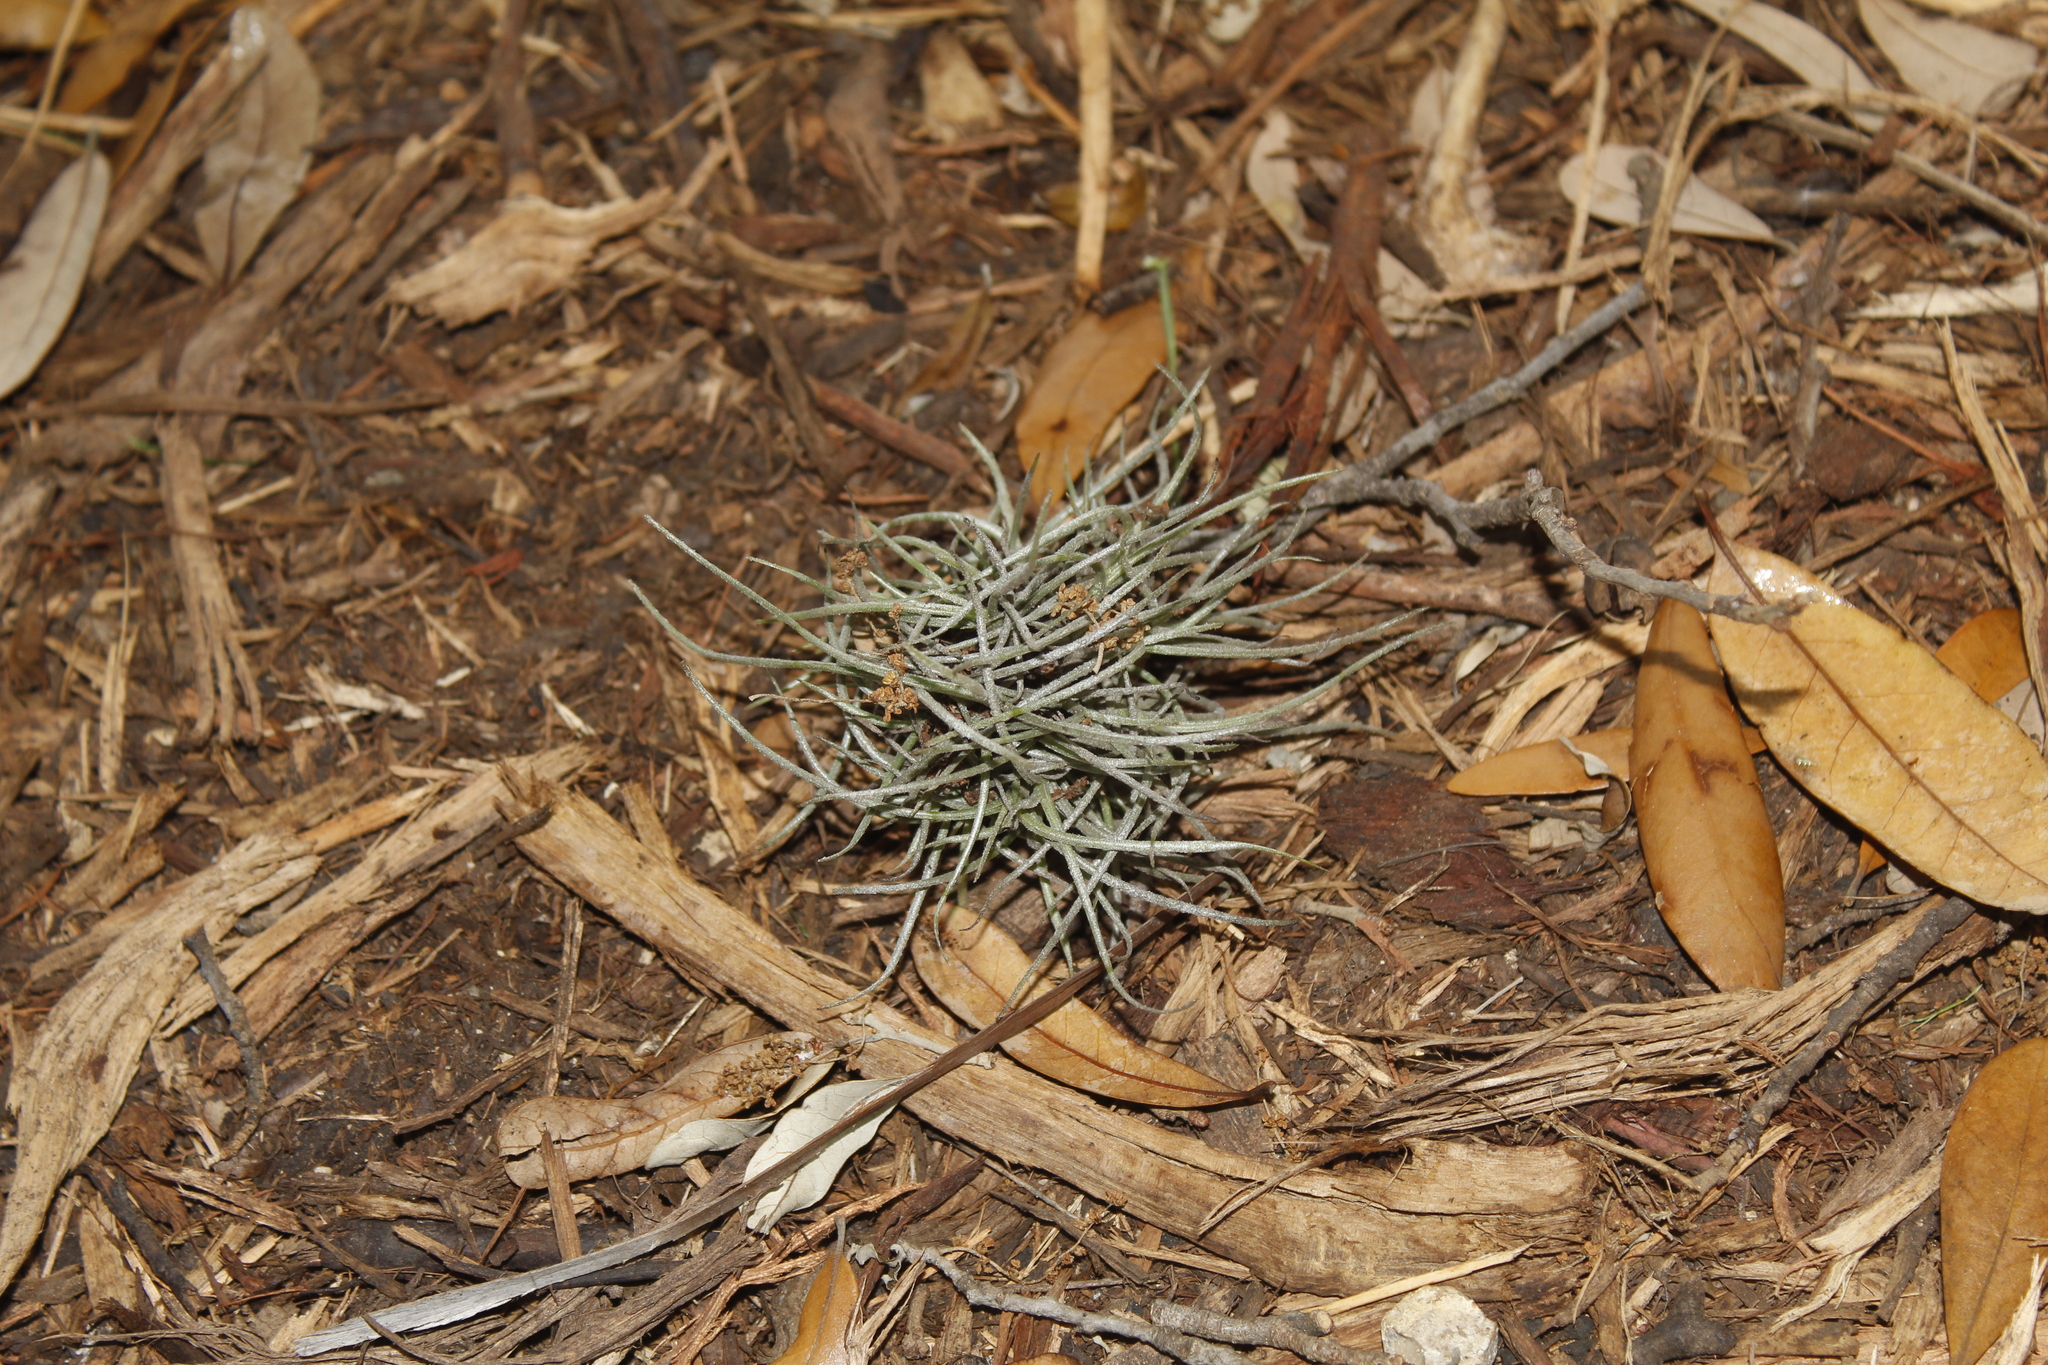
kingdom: Plantae
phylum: Tracheophyta
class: Liliopsida
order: Poales
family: Bromeliaceae
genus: Tillandsia
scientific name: Tillandsia recurvata
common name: Small ballmoss
